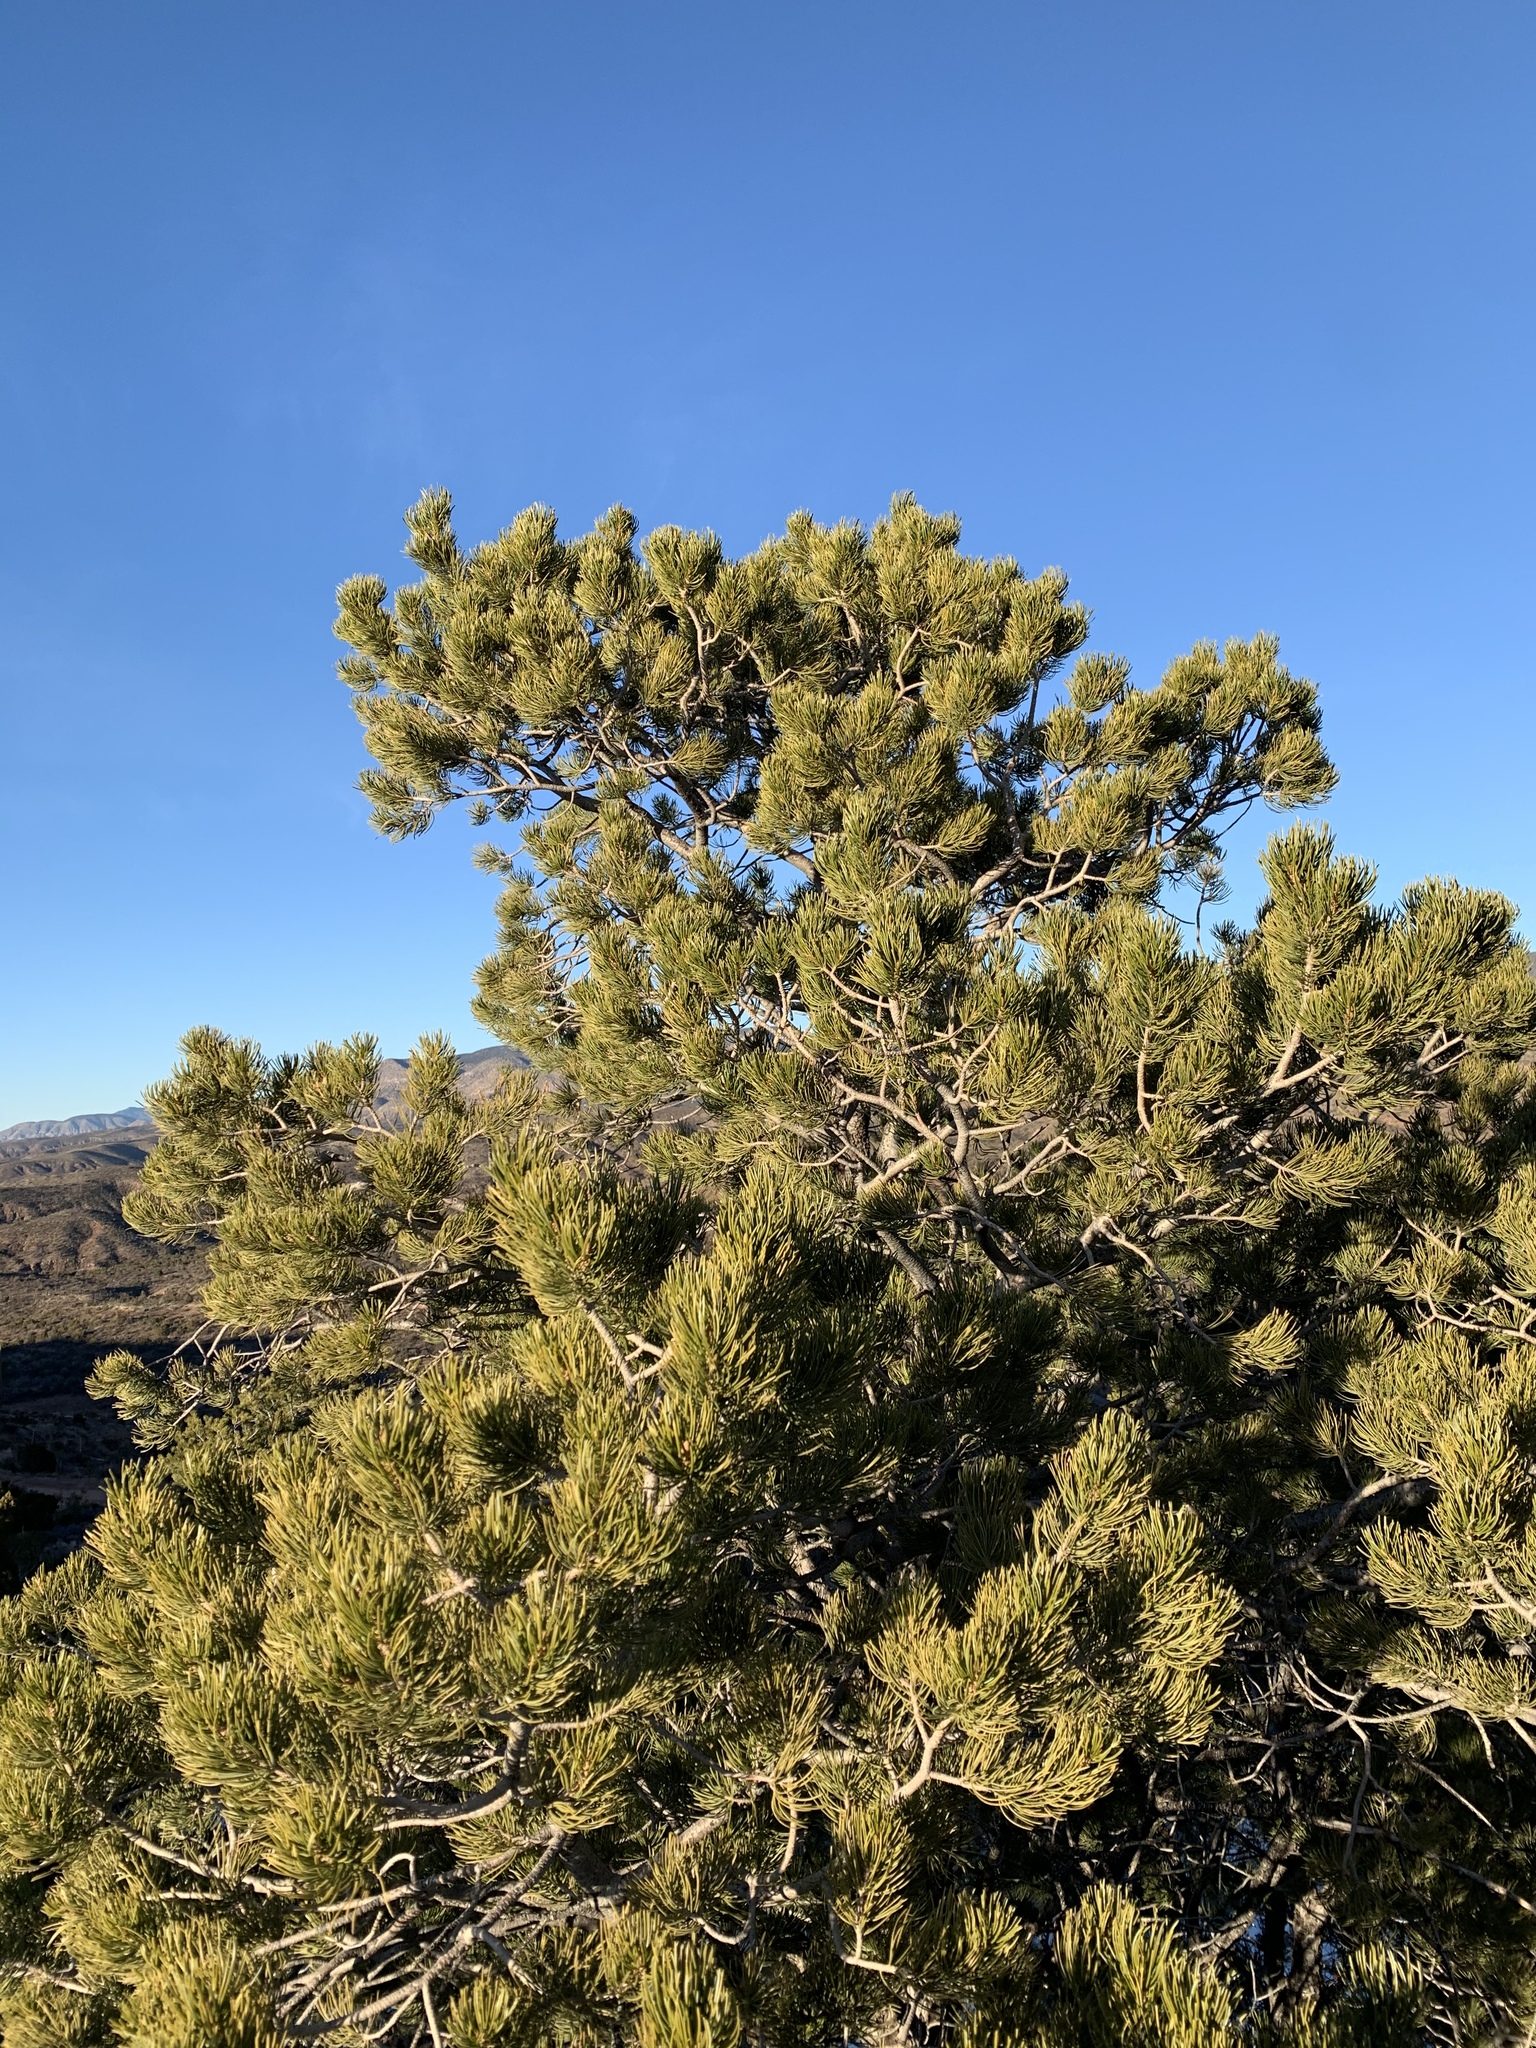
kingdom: Plantae
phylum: Tracheophyta
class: Pinopsida
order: Pinales
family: Pinaceae
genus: Pinus
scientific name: Pinus edulis
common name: Colorado pinyon
